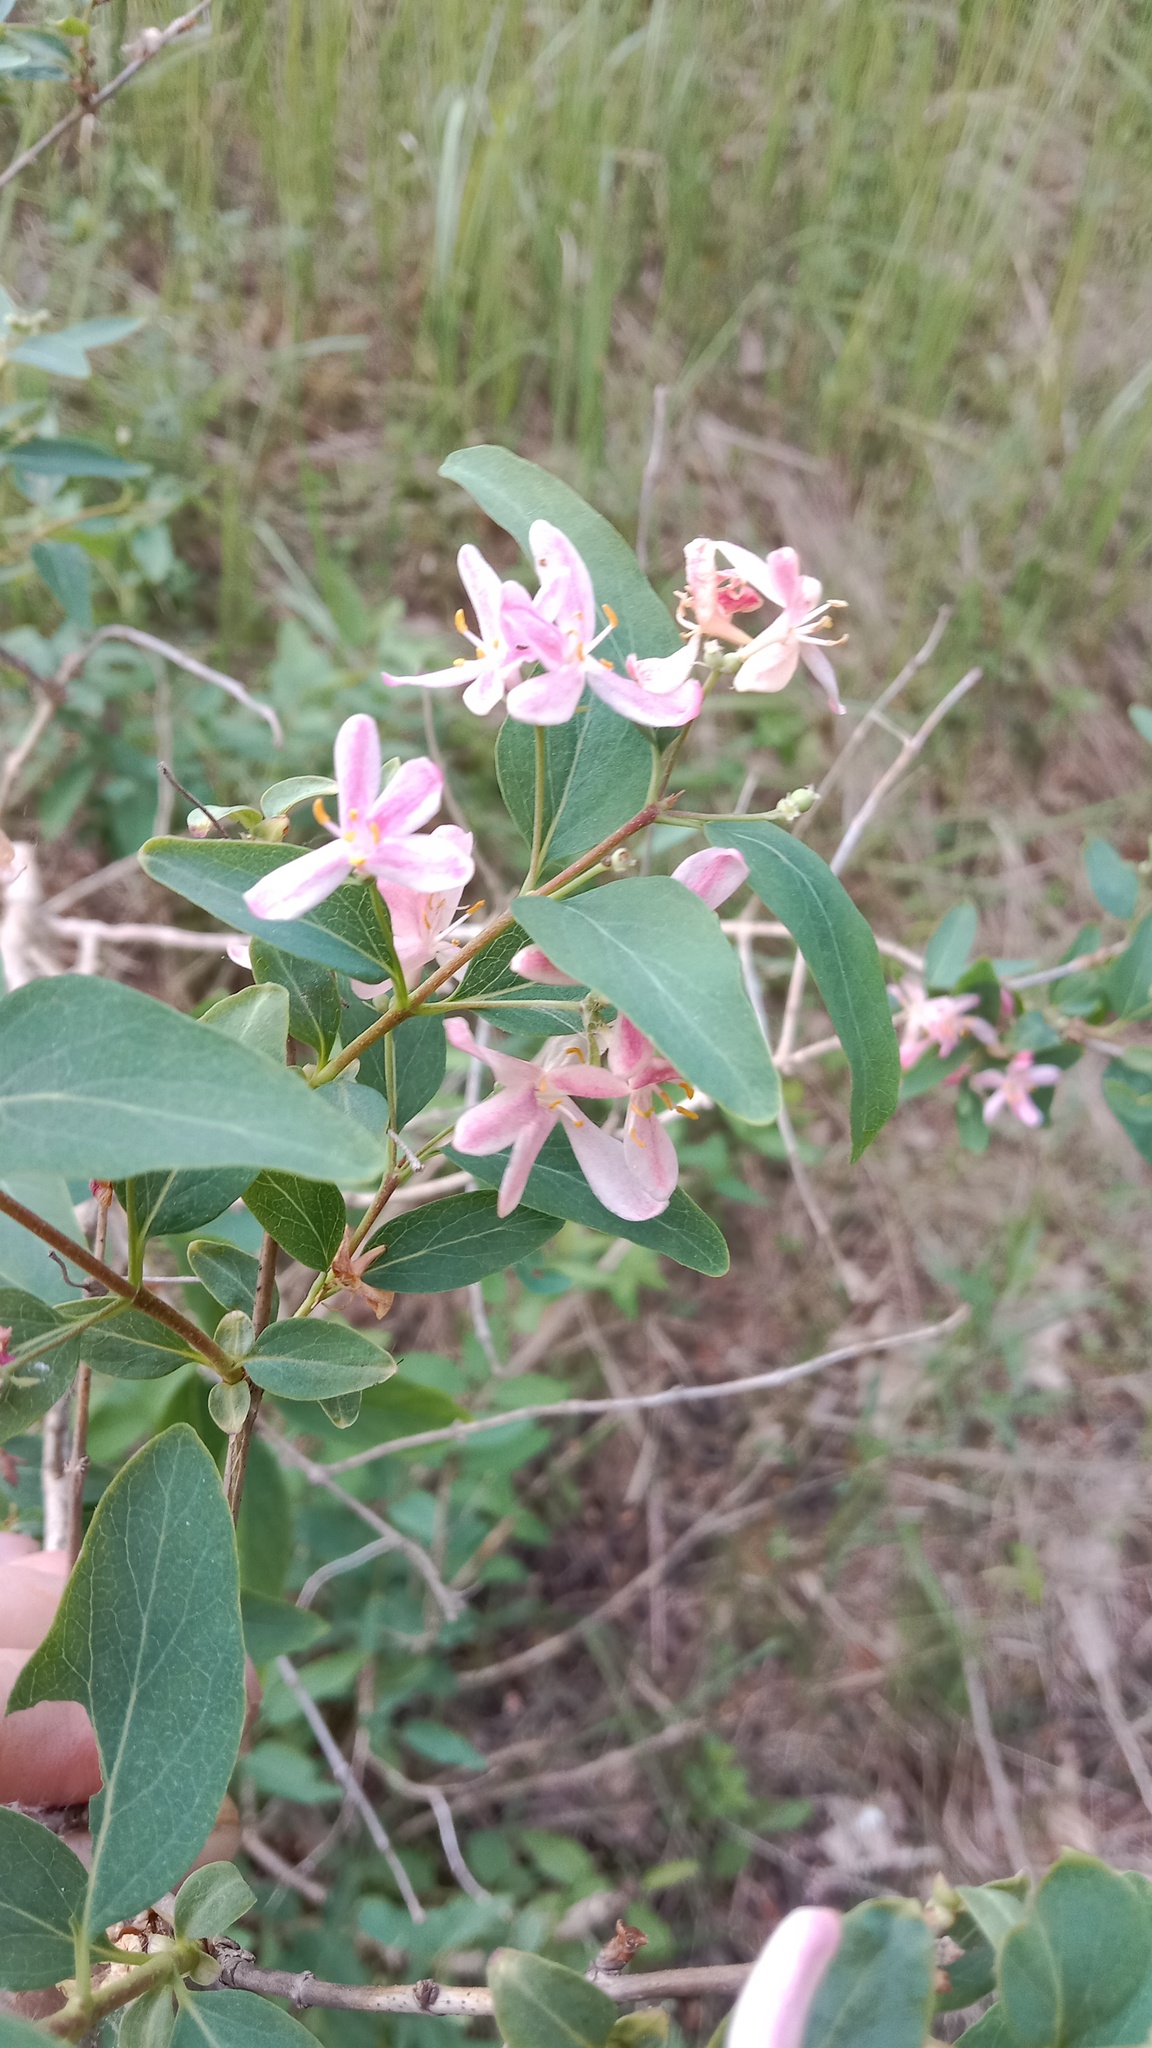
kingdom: Plantae
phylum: Tracheophyta
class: Magnoliopsida
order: Dipsacales
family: Caprifoliaceae
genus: Lonicera
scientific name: Lonicera tatarica
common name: Tatarian honeysuckle
